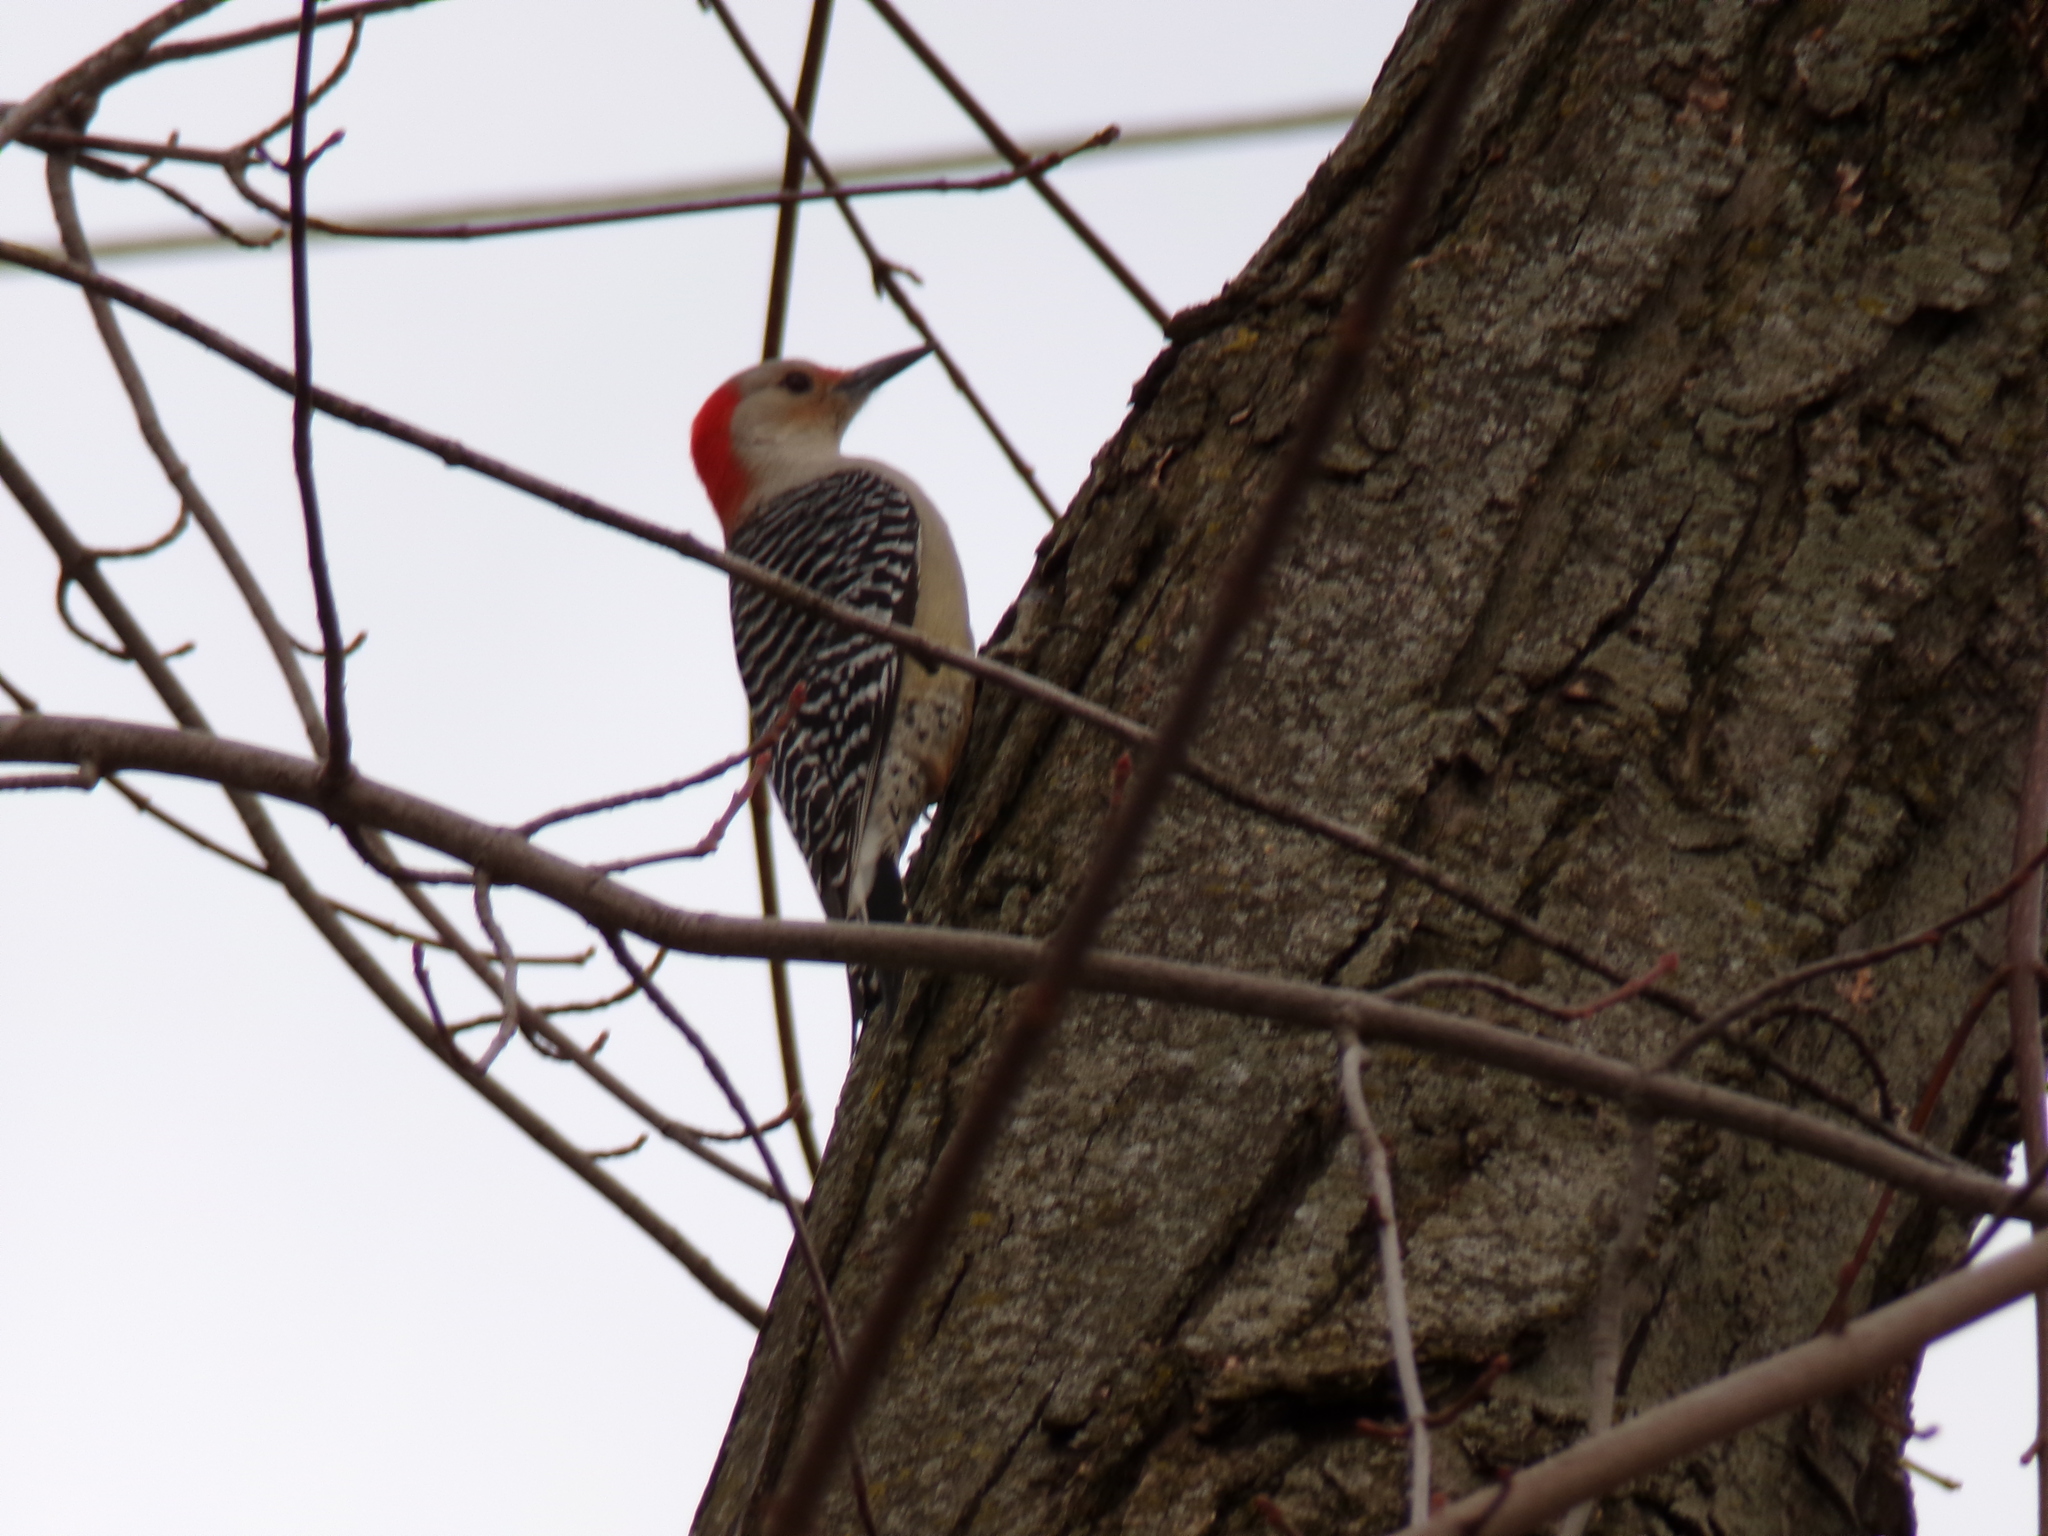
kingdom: Animalia
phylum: Chordata
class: Aves
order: Piciformes
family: Picidae
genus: Melanerpes
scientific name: Melanerpes carolinus
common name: Red-bellied woodpecker
